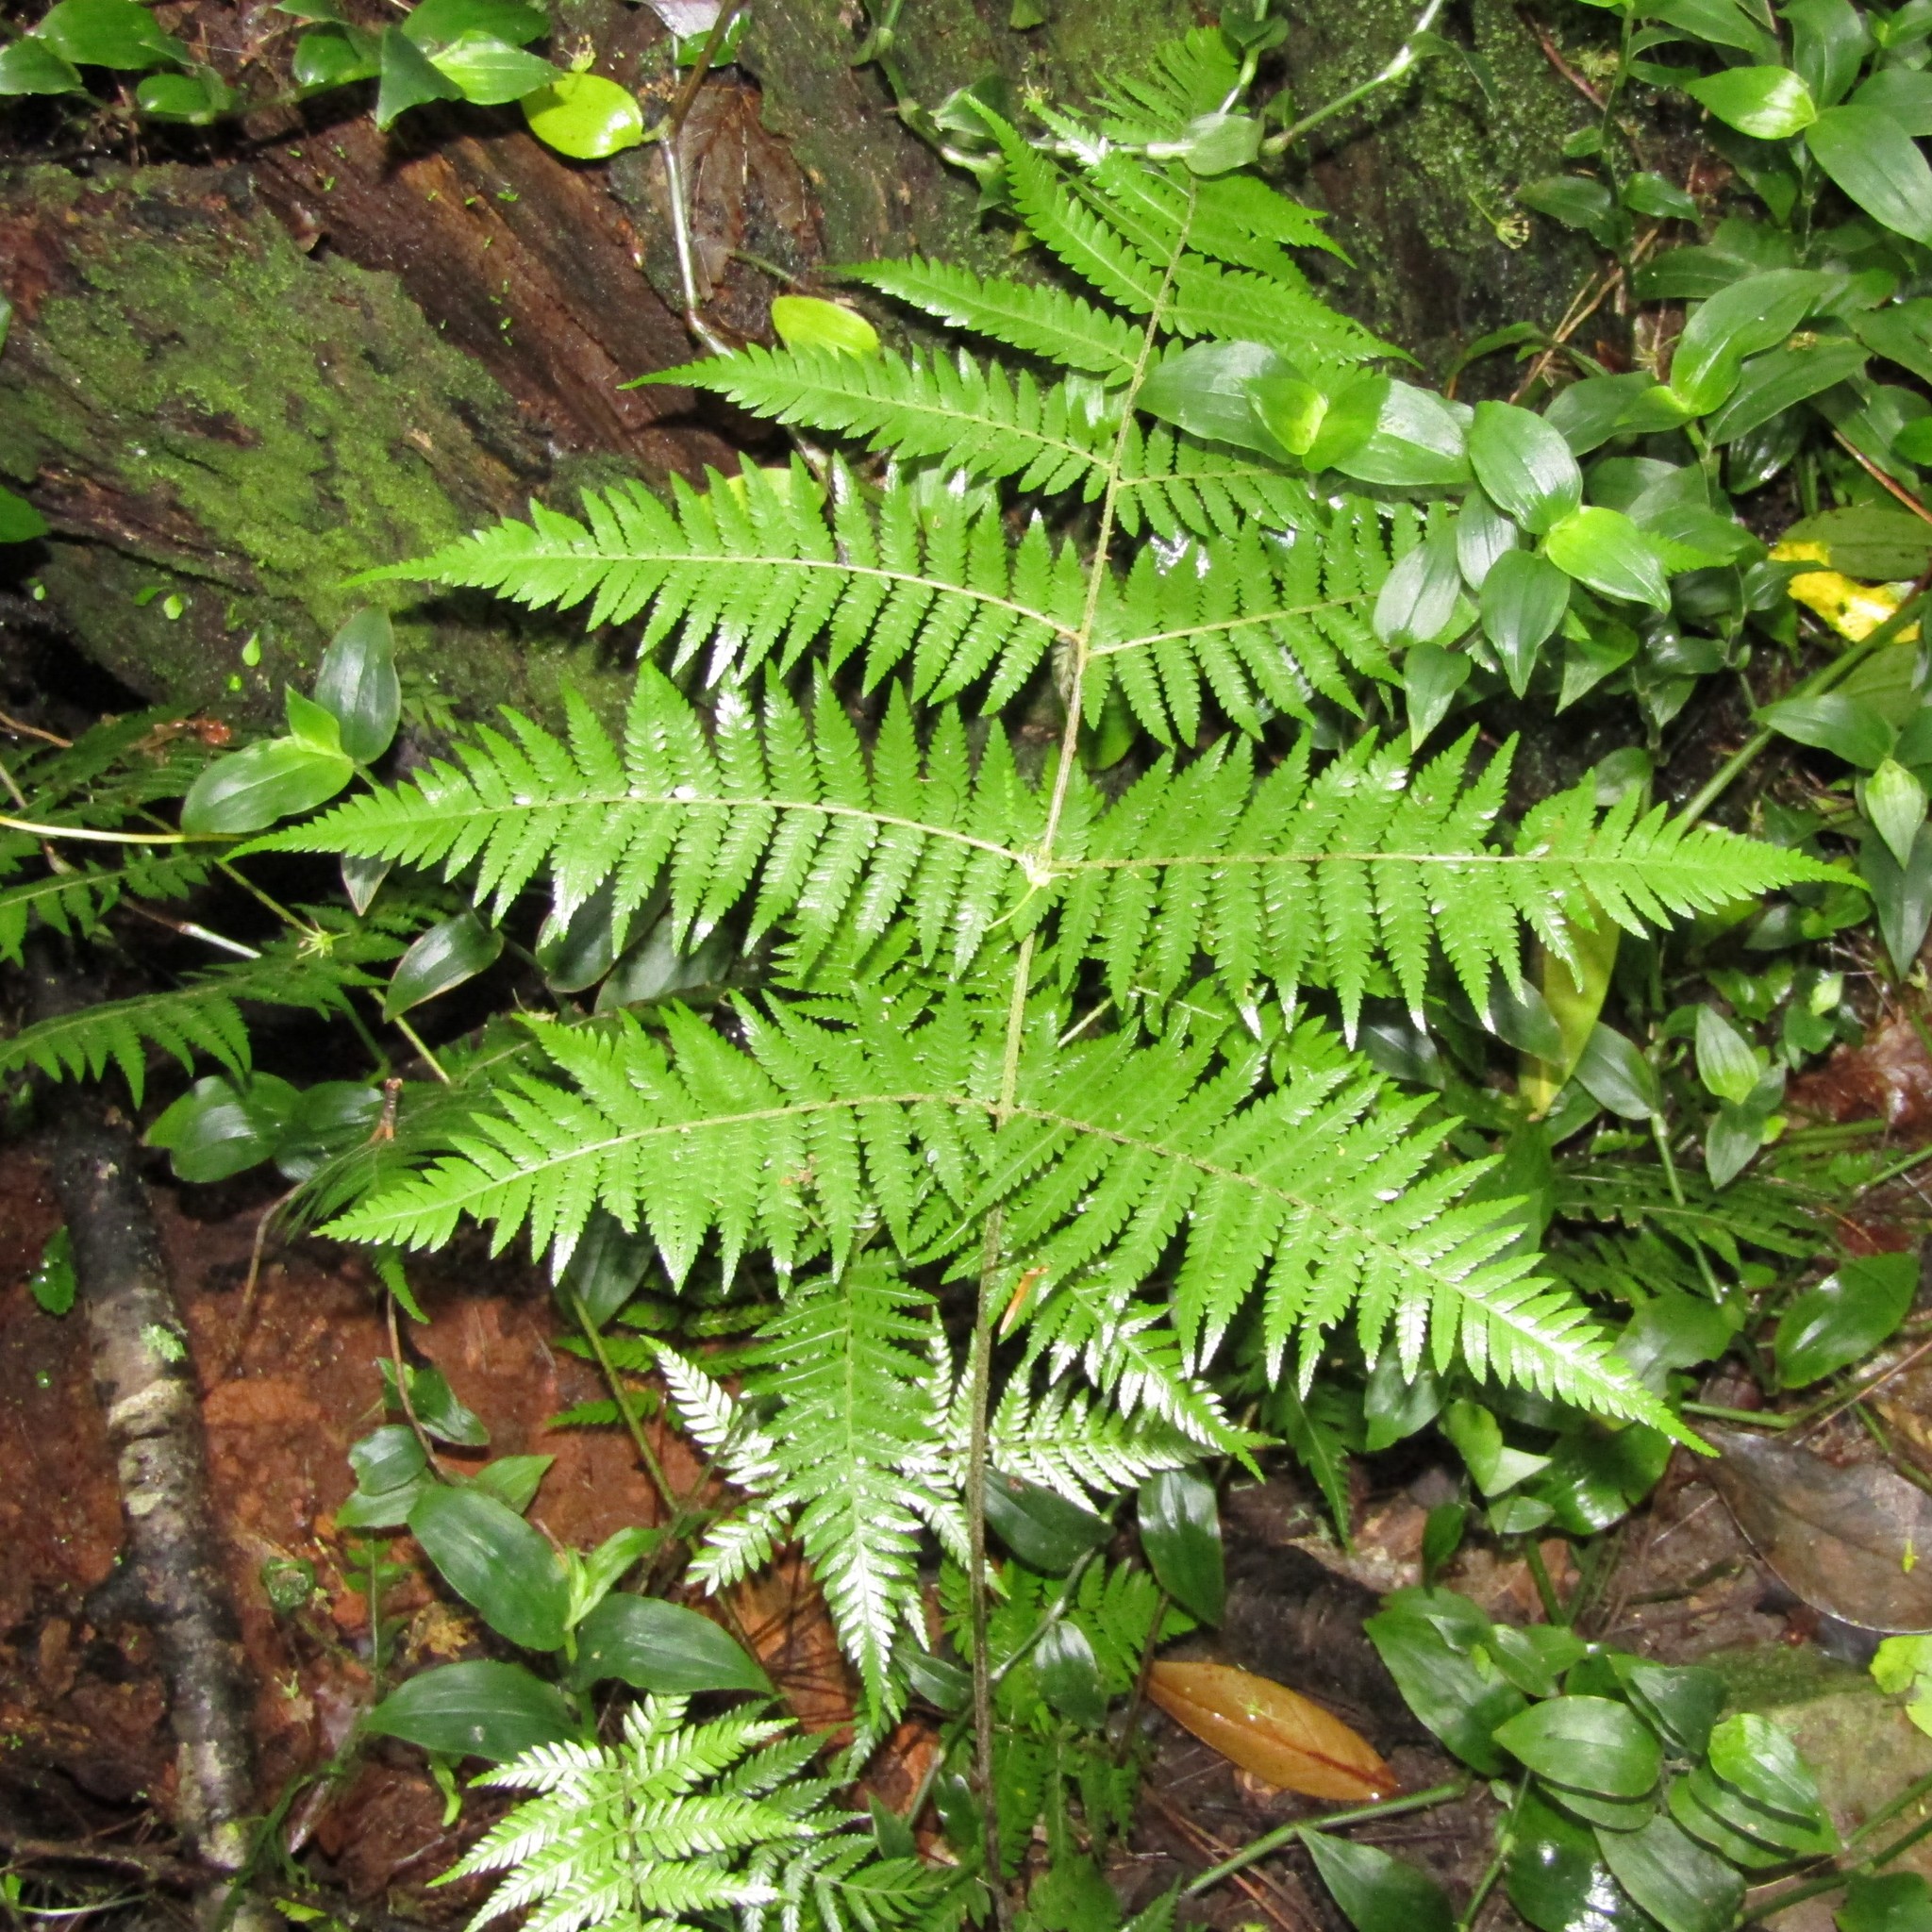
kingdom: Plantae
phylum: Tracheophyta
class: Polypodiopsida
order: Cyatheales
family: Cyatheaceae
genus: Alsophila
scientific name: Alsophila dealbata
